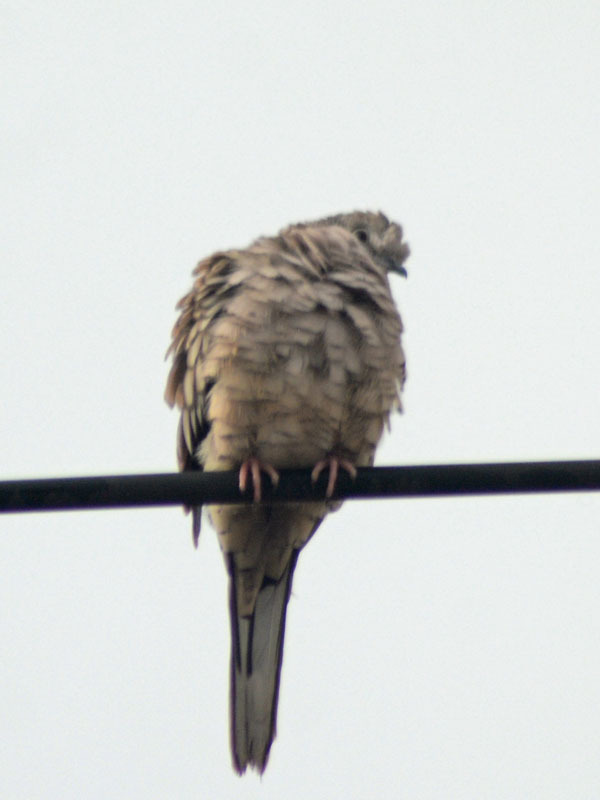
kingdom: Animalia
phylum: Chordata
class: Aves
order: Columbiformes
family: Columbidae
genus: Columbina
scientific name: Columbina inca
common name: Inca dove
